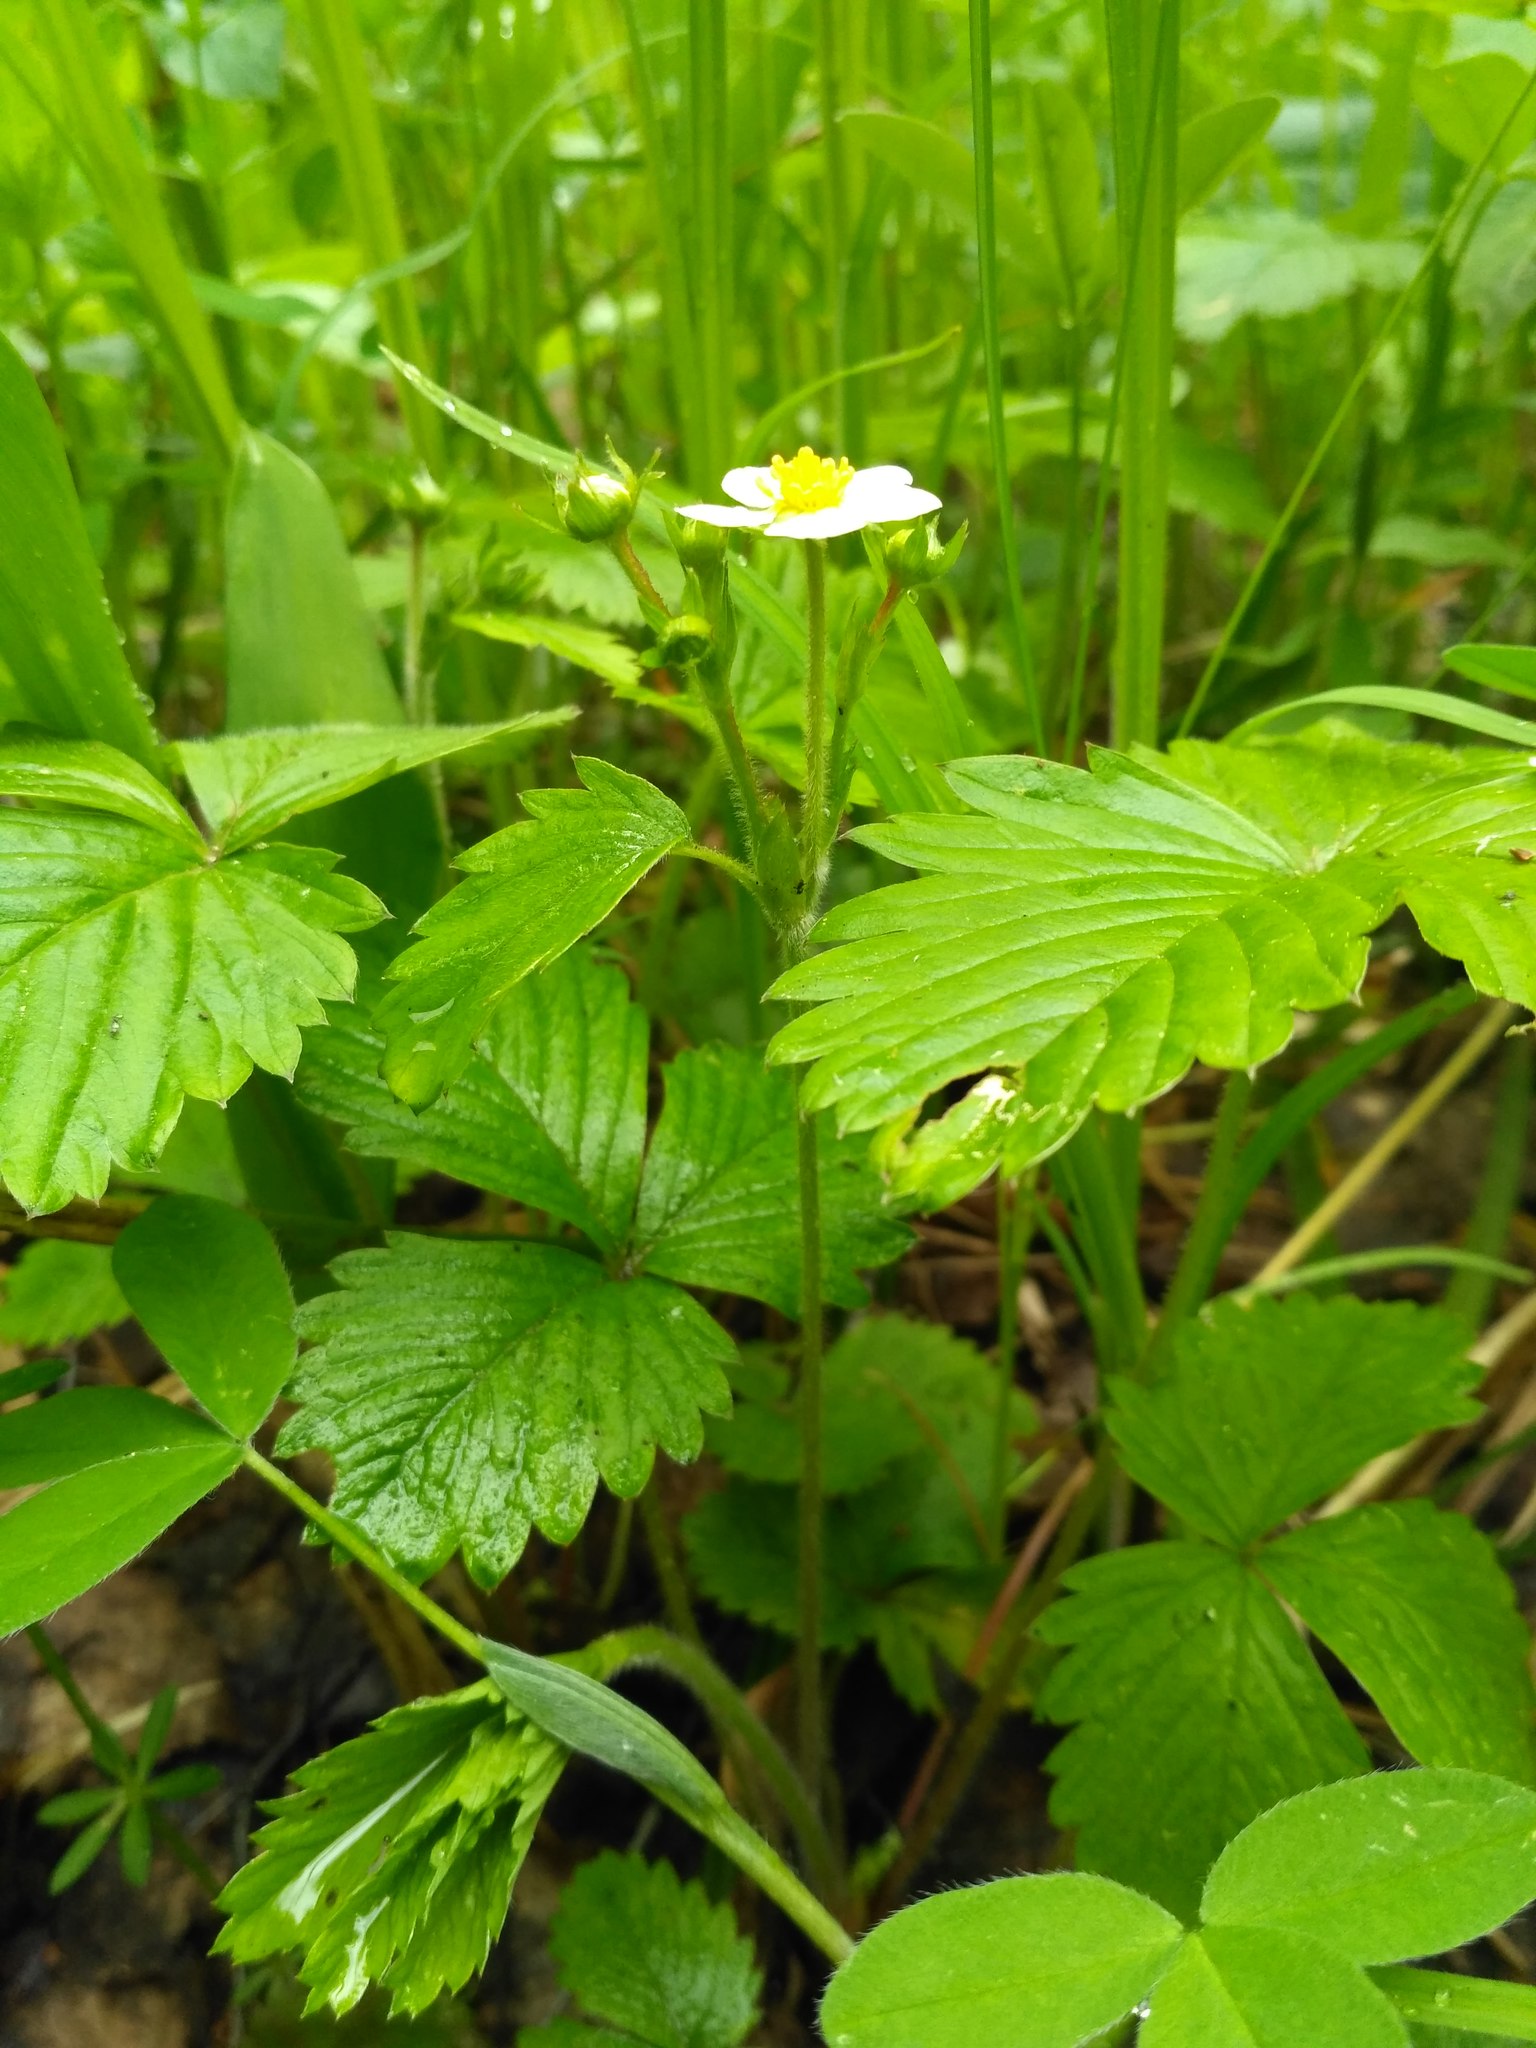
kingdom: Plantae
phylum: Tracheophyta
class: Magnoliopsida
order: Rosales
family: Rosaceae
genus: Fragaria
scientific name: Fragaria vesca
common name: Wild strawberry
